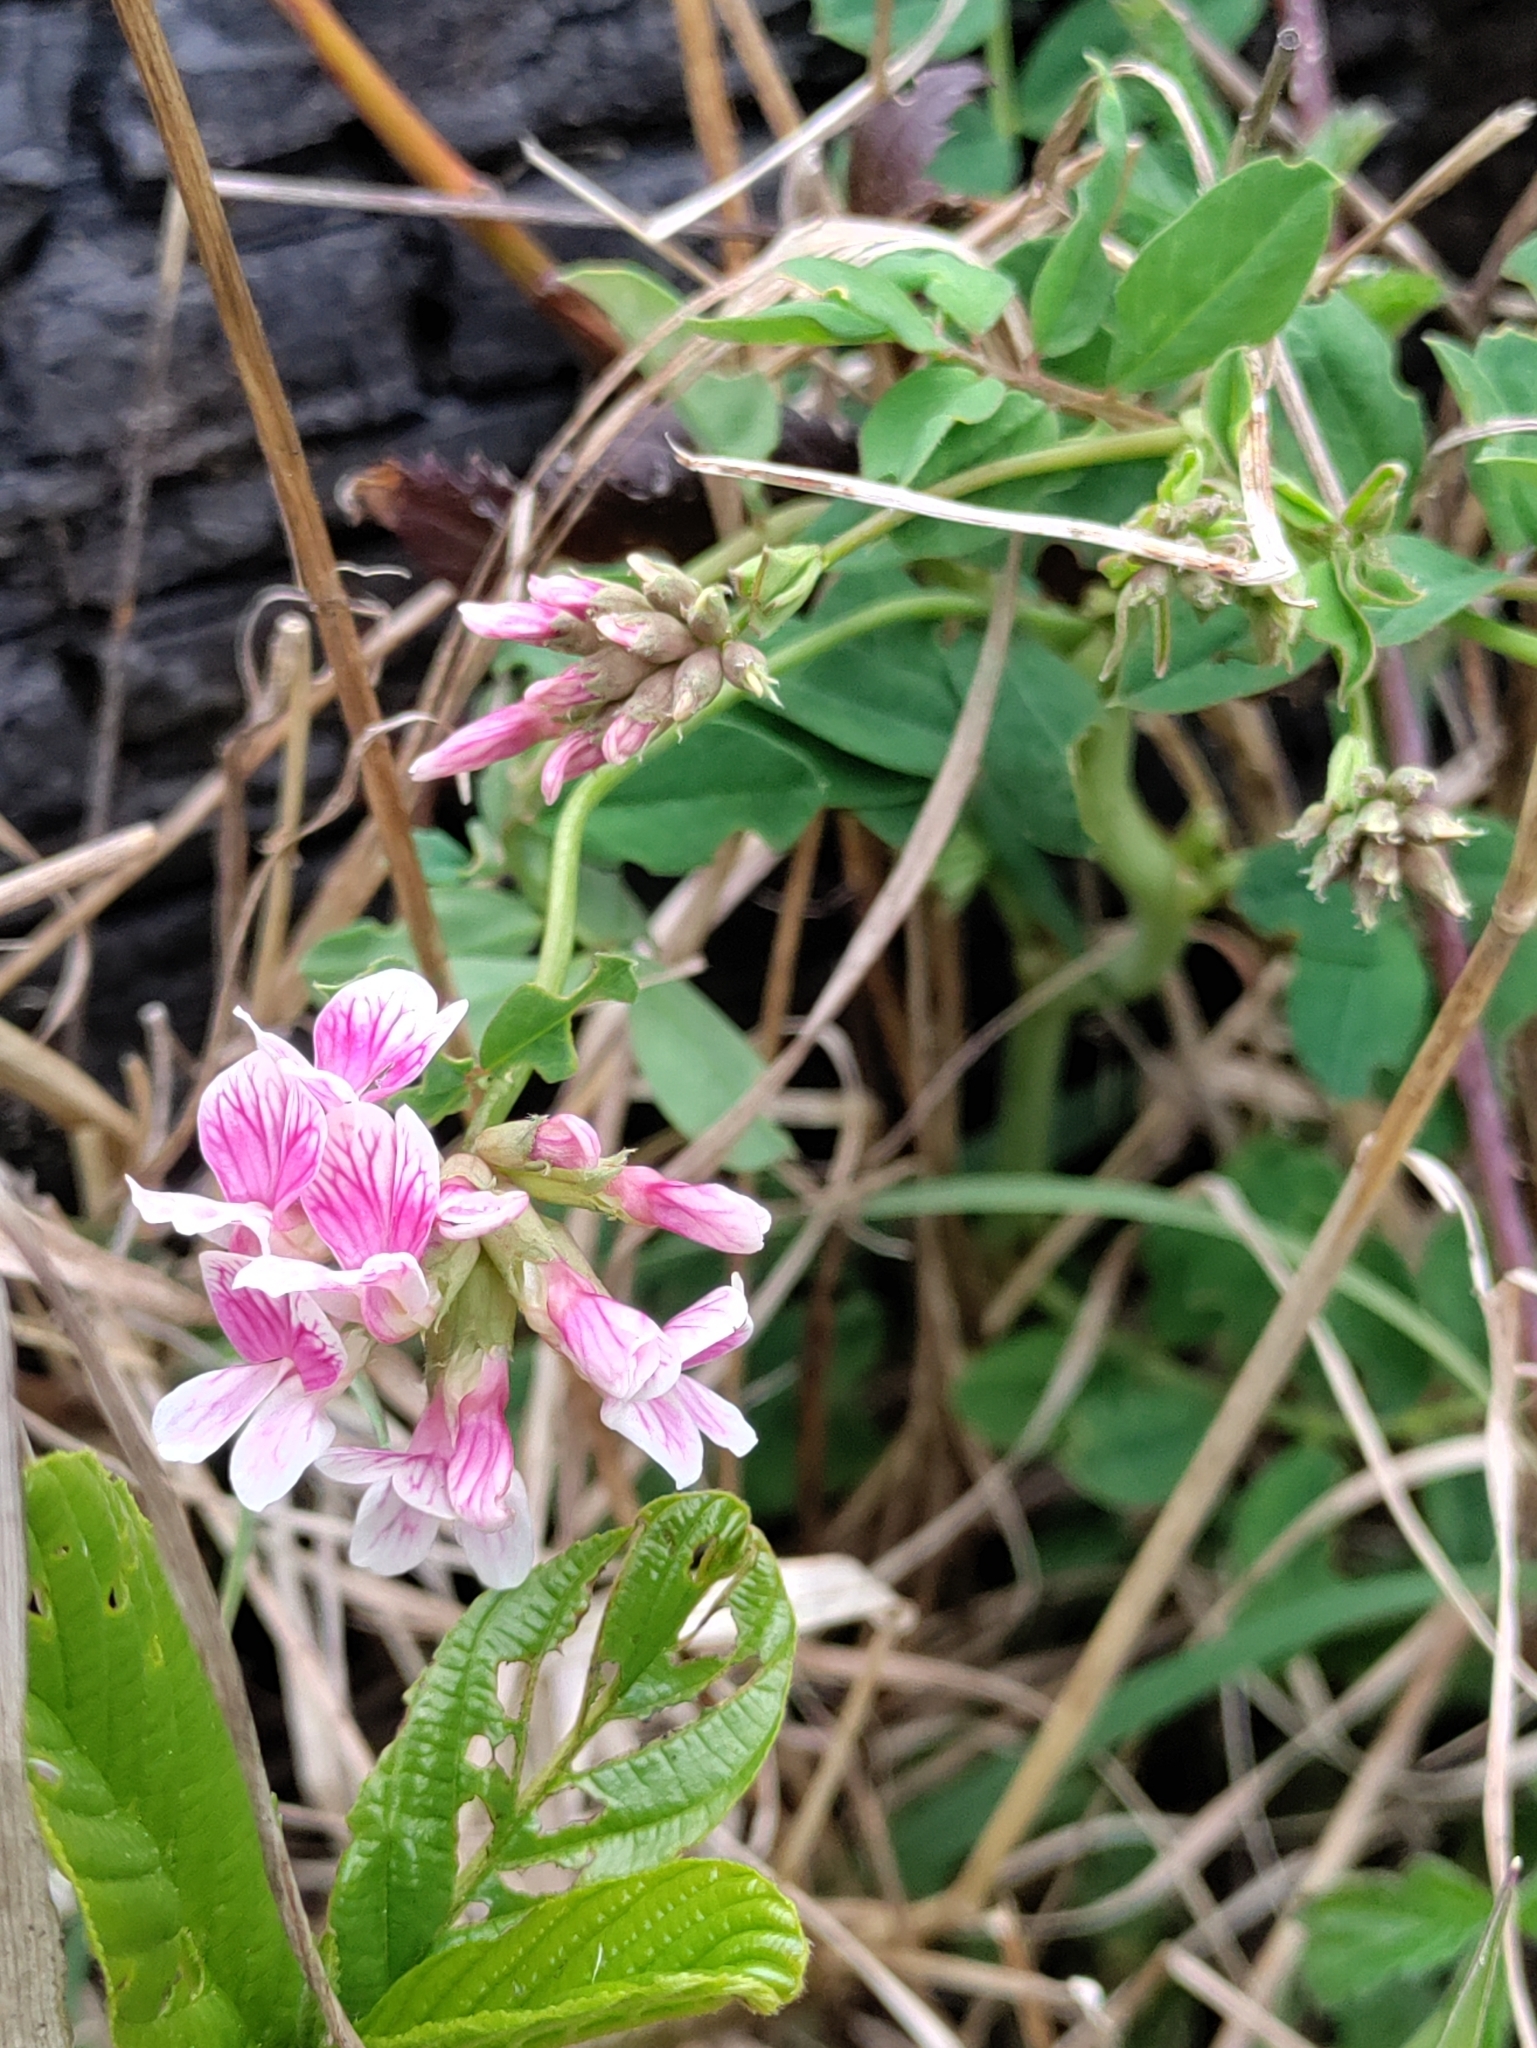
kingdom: Plantae
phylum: Tracheophyta
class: Magnoliopsida
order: Fabales
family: Fabaceae
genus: Hosackia
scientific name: Hosackia rosea
